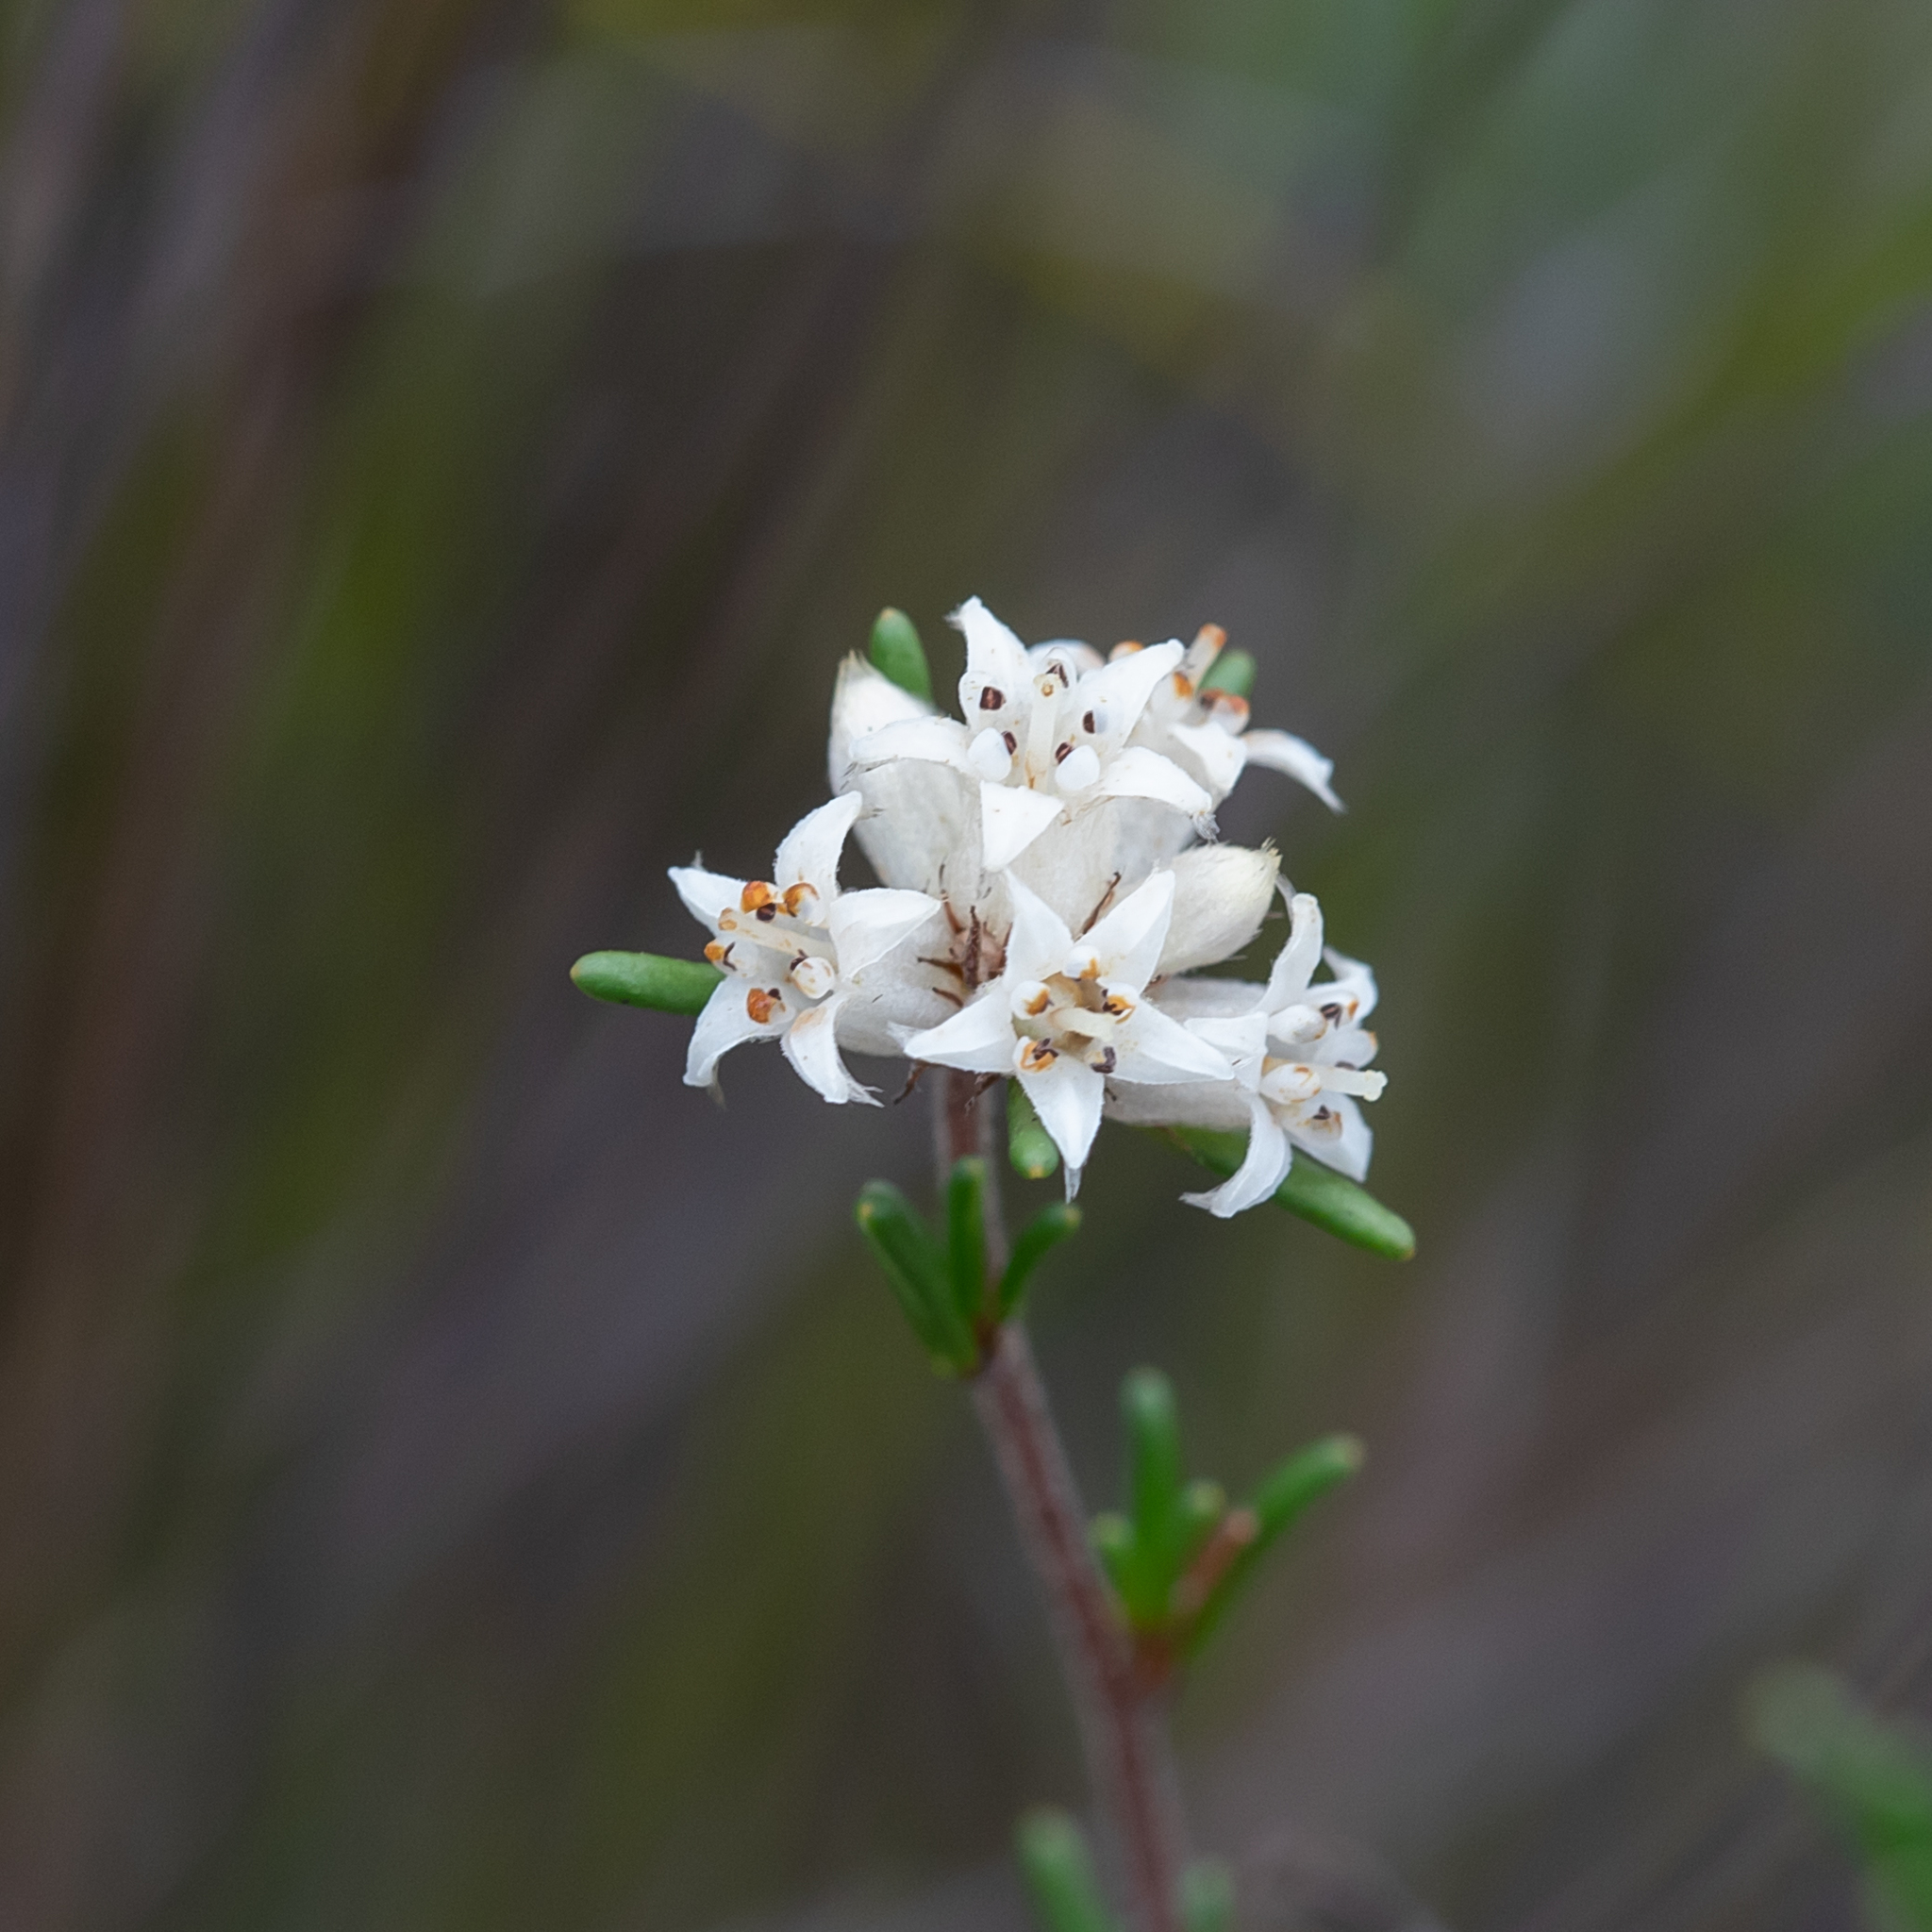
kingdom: Plantae
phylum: Tracheophyta
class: Magnoliopsida
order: Rosales
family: Rhamnaceae
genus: Cryptandra
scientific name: Cryptandra hispidula
